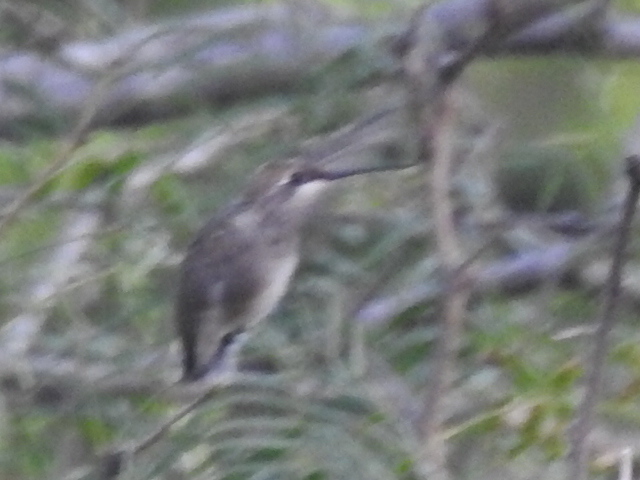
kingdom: Animalia
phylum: Chordata
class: Aves
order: Apodiformes
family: Trochilidae
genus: Archilochus
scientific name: Archilochus alexandri
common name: Black-chinned hummingbird
